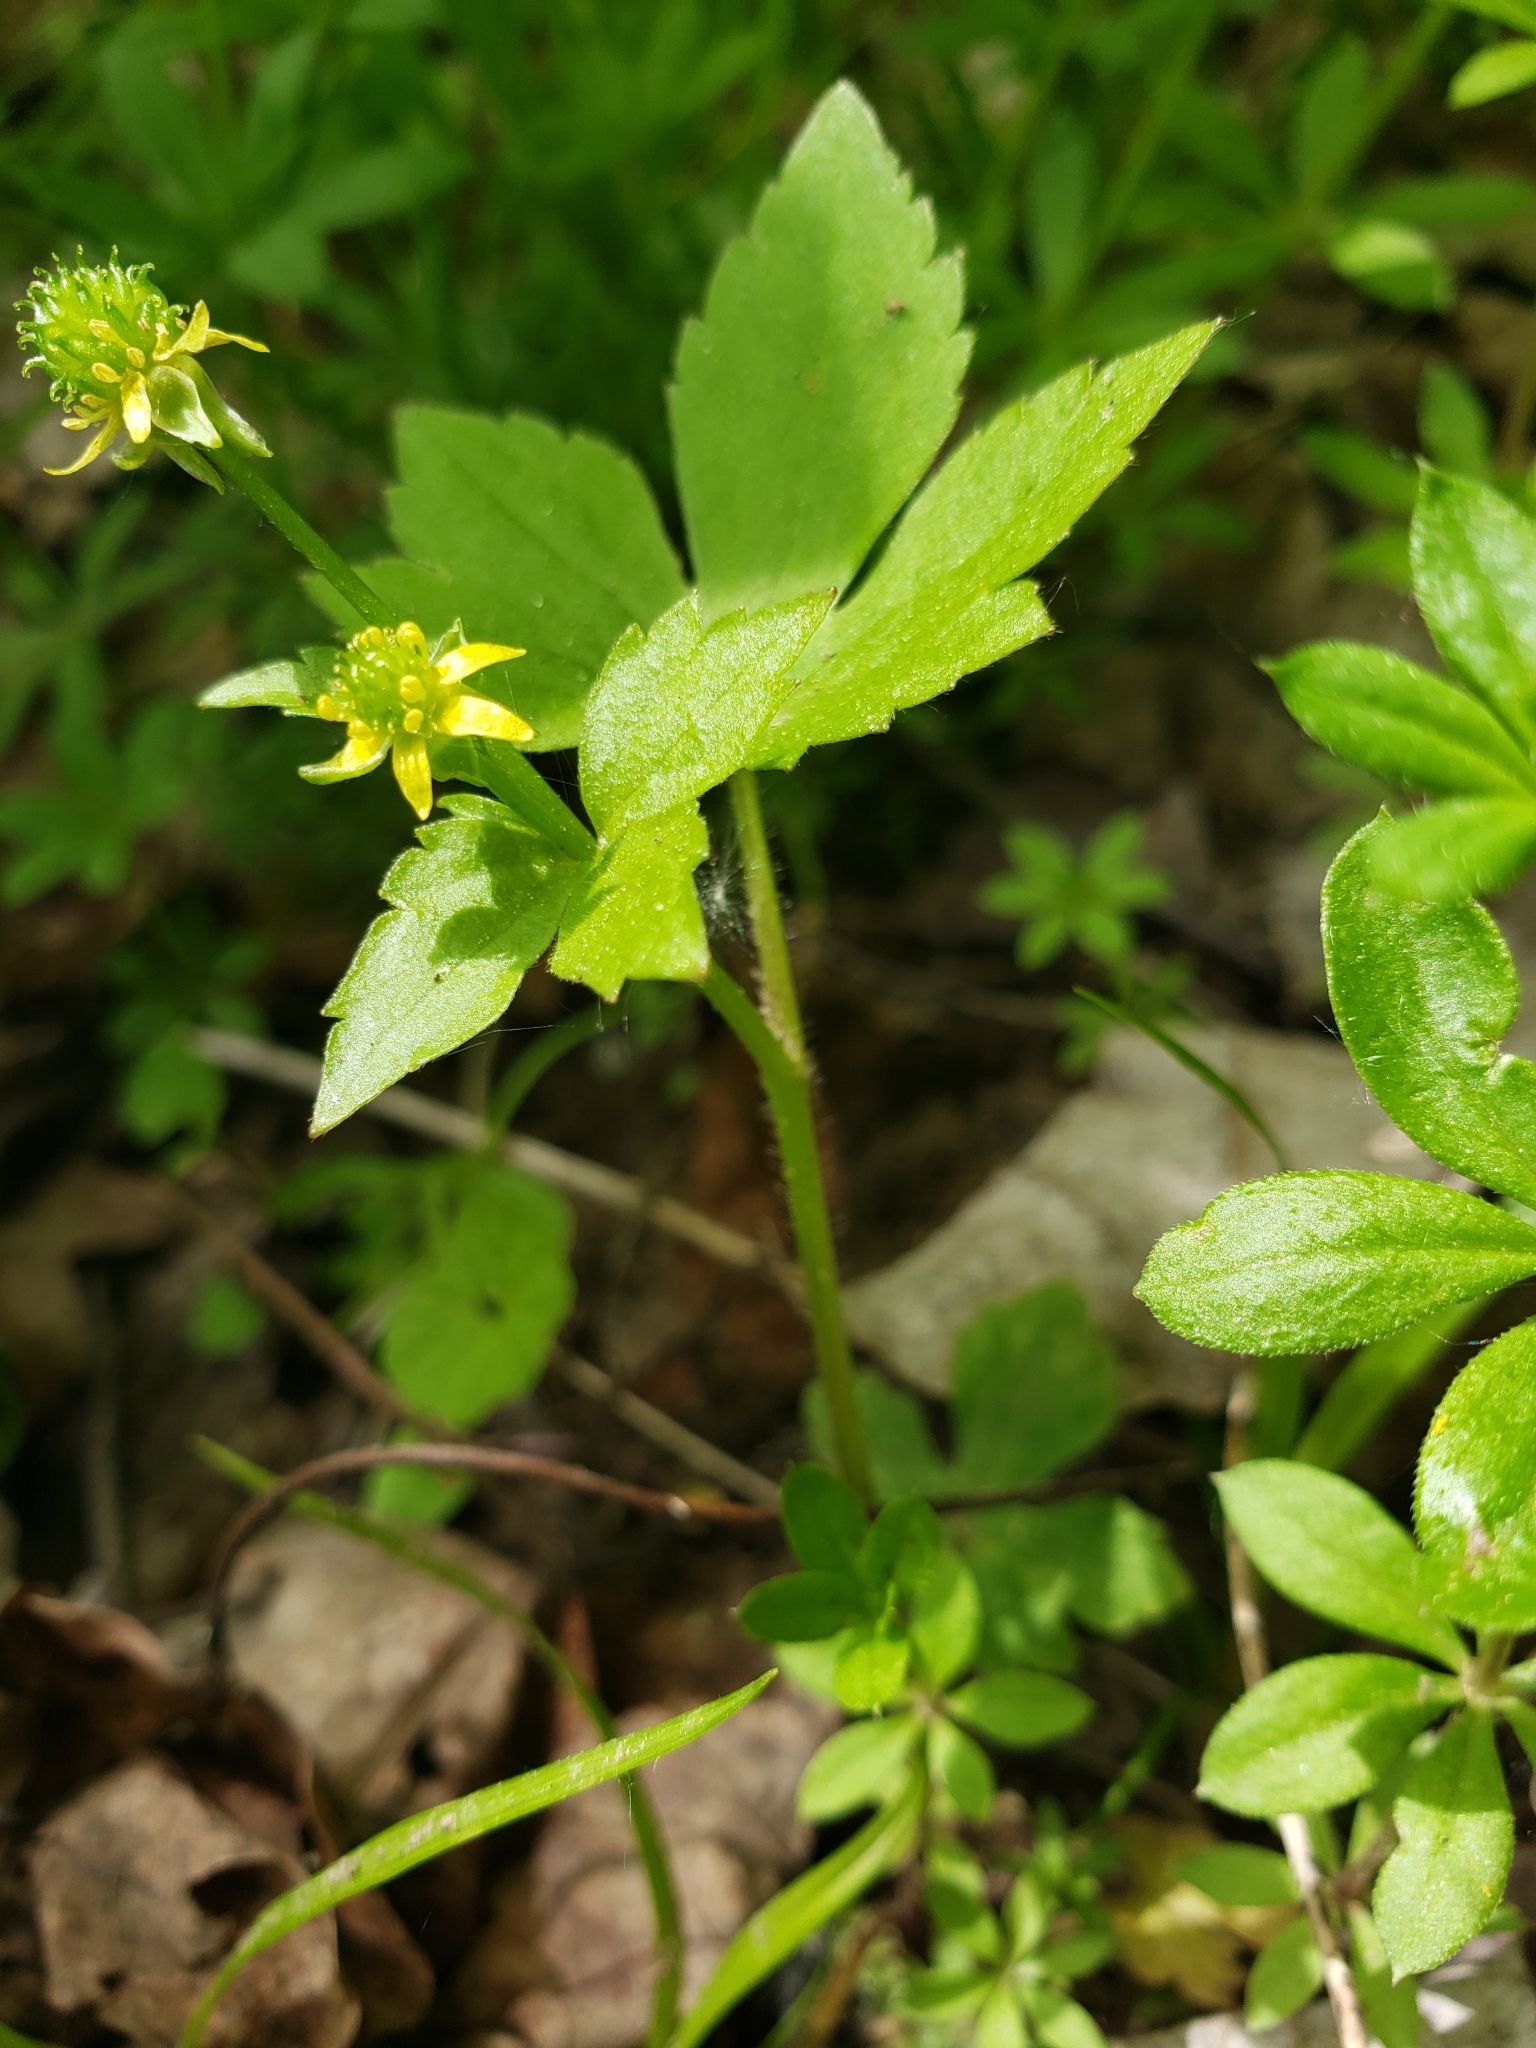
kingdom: Plantae
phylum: Tracheophyta
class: Magnoliopsida
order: Ranunculales
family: Ranunculaceae
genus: Ranunculus
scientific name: Ranunculus recurvatus
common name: Blisterwort
